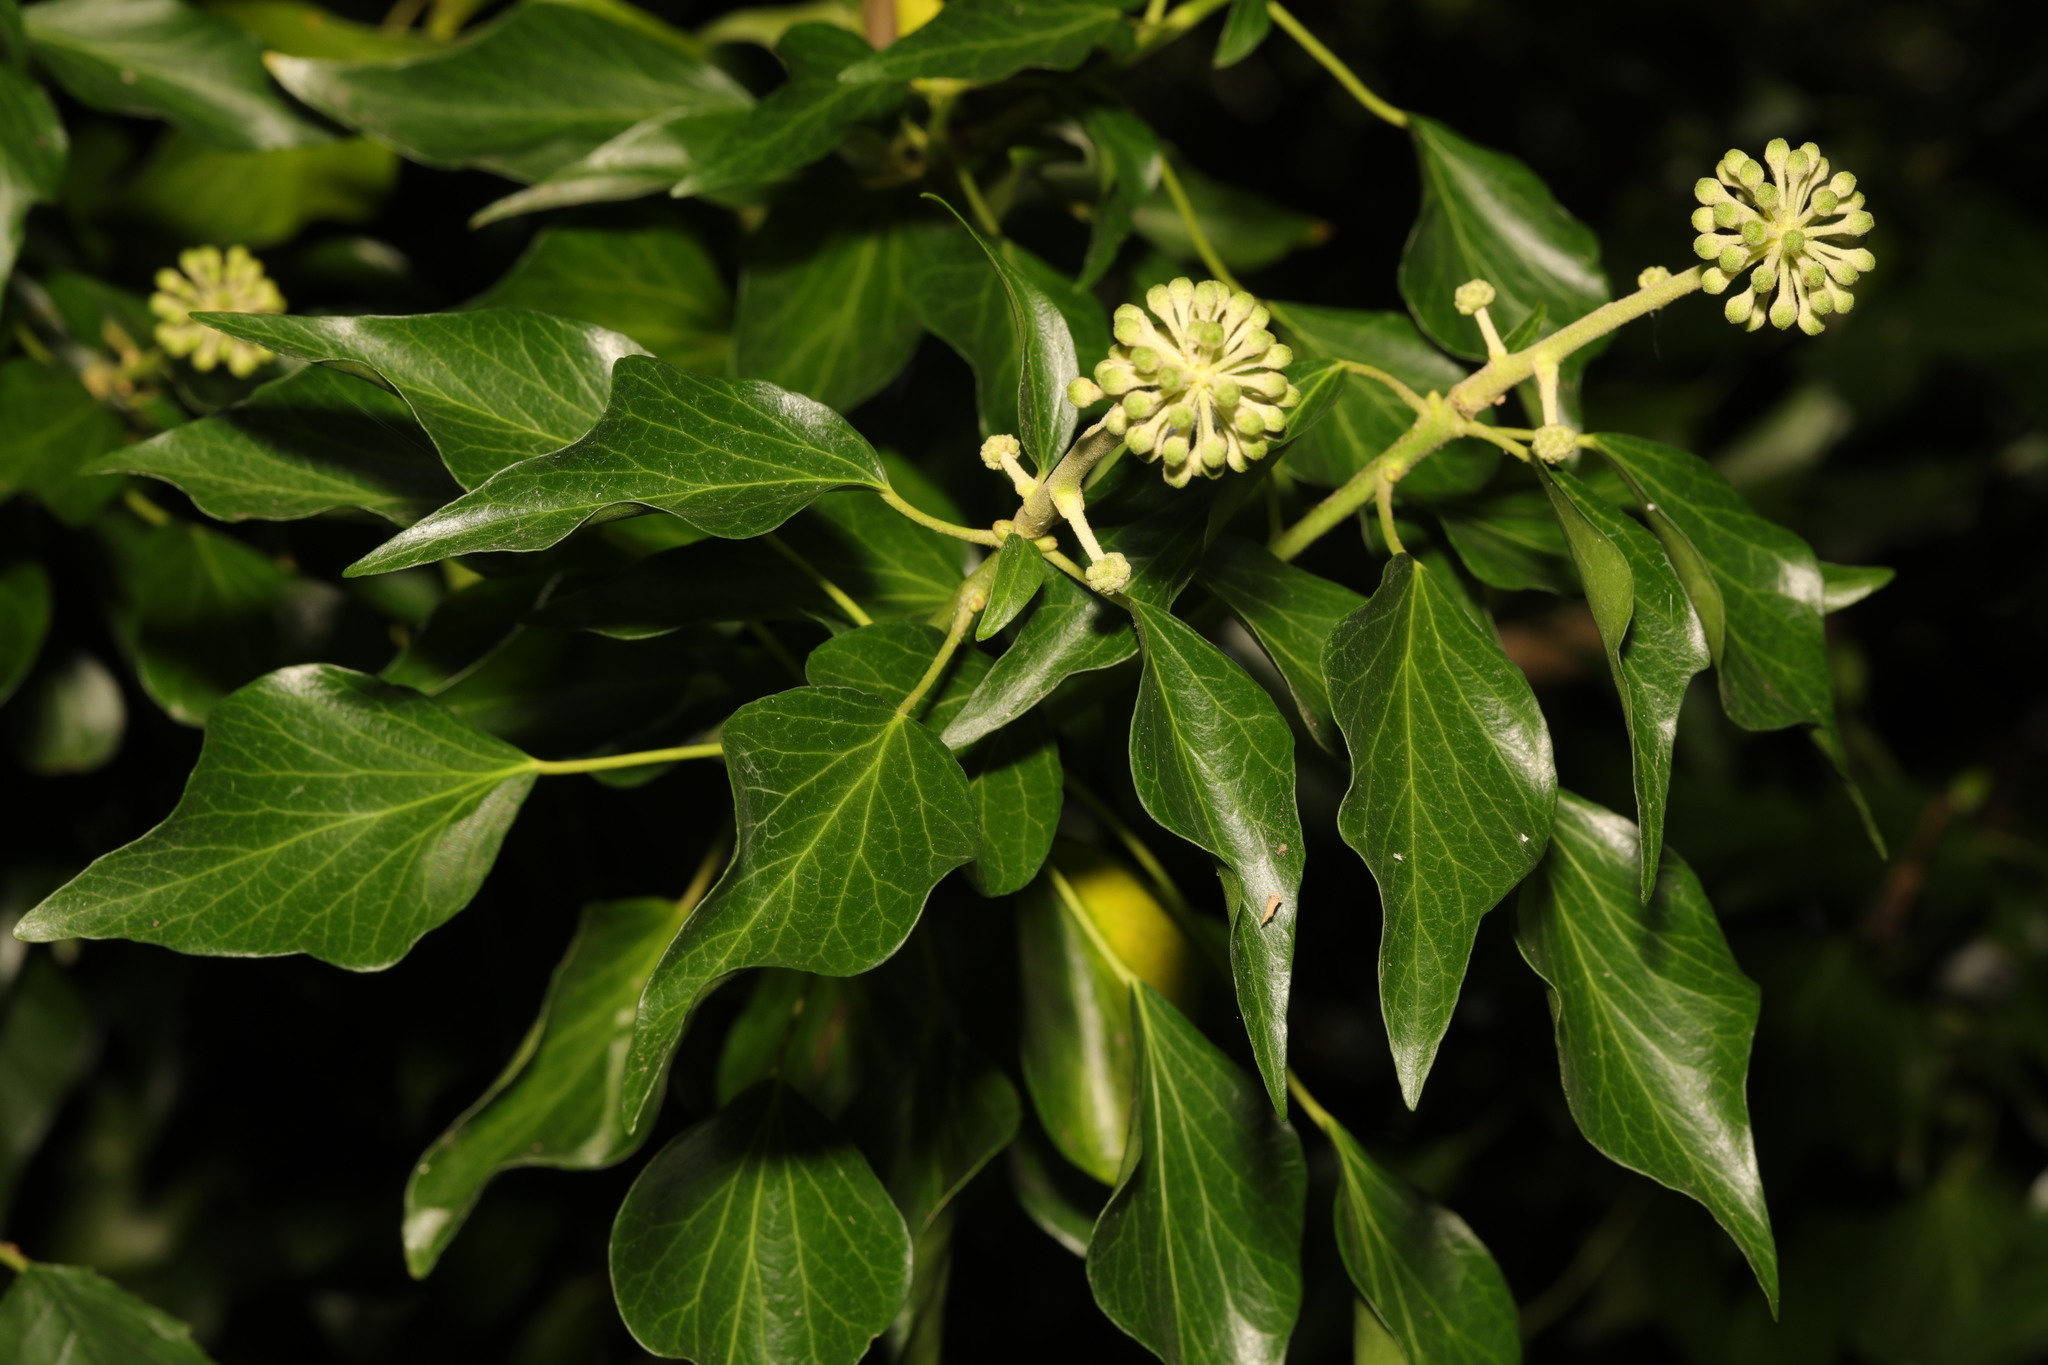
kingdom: Plantae
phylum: Tracheophyta
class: Magnoliopsida
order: Apiales
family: Araliaceae
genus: Hedera
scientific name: Hedera helix
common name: Ivy
